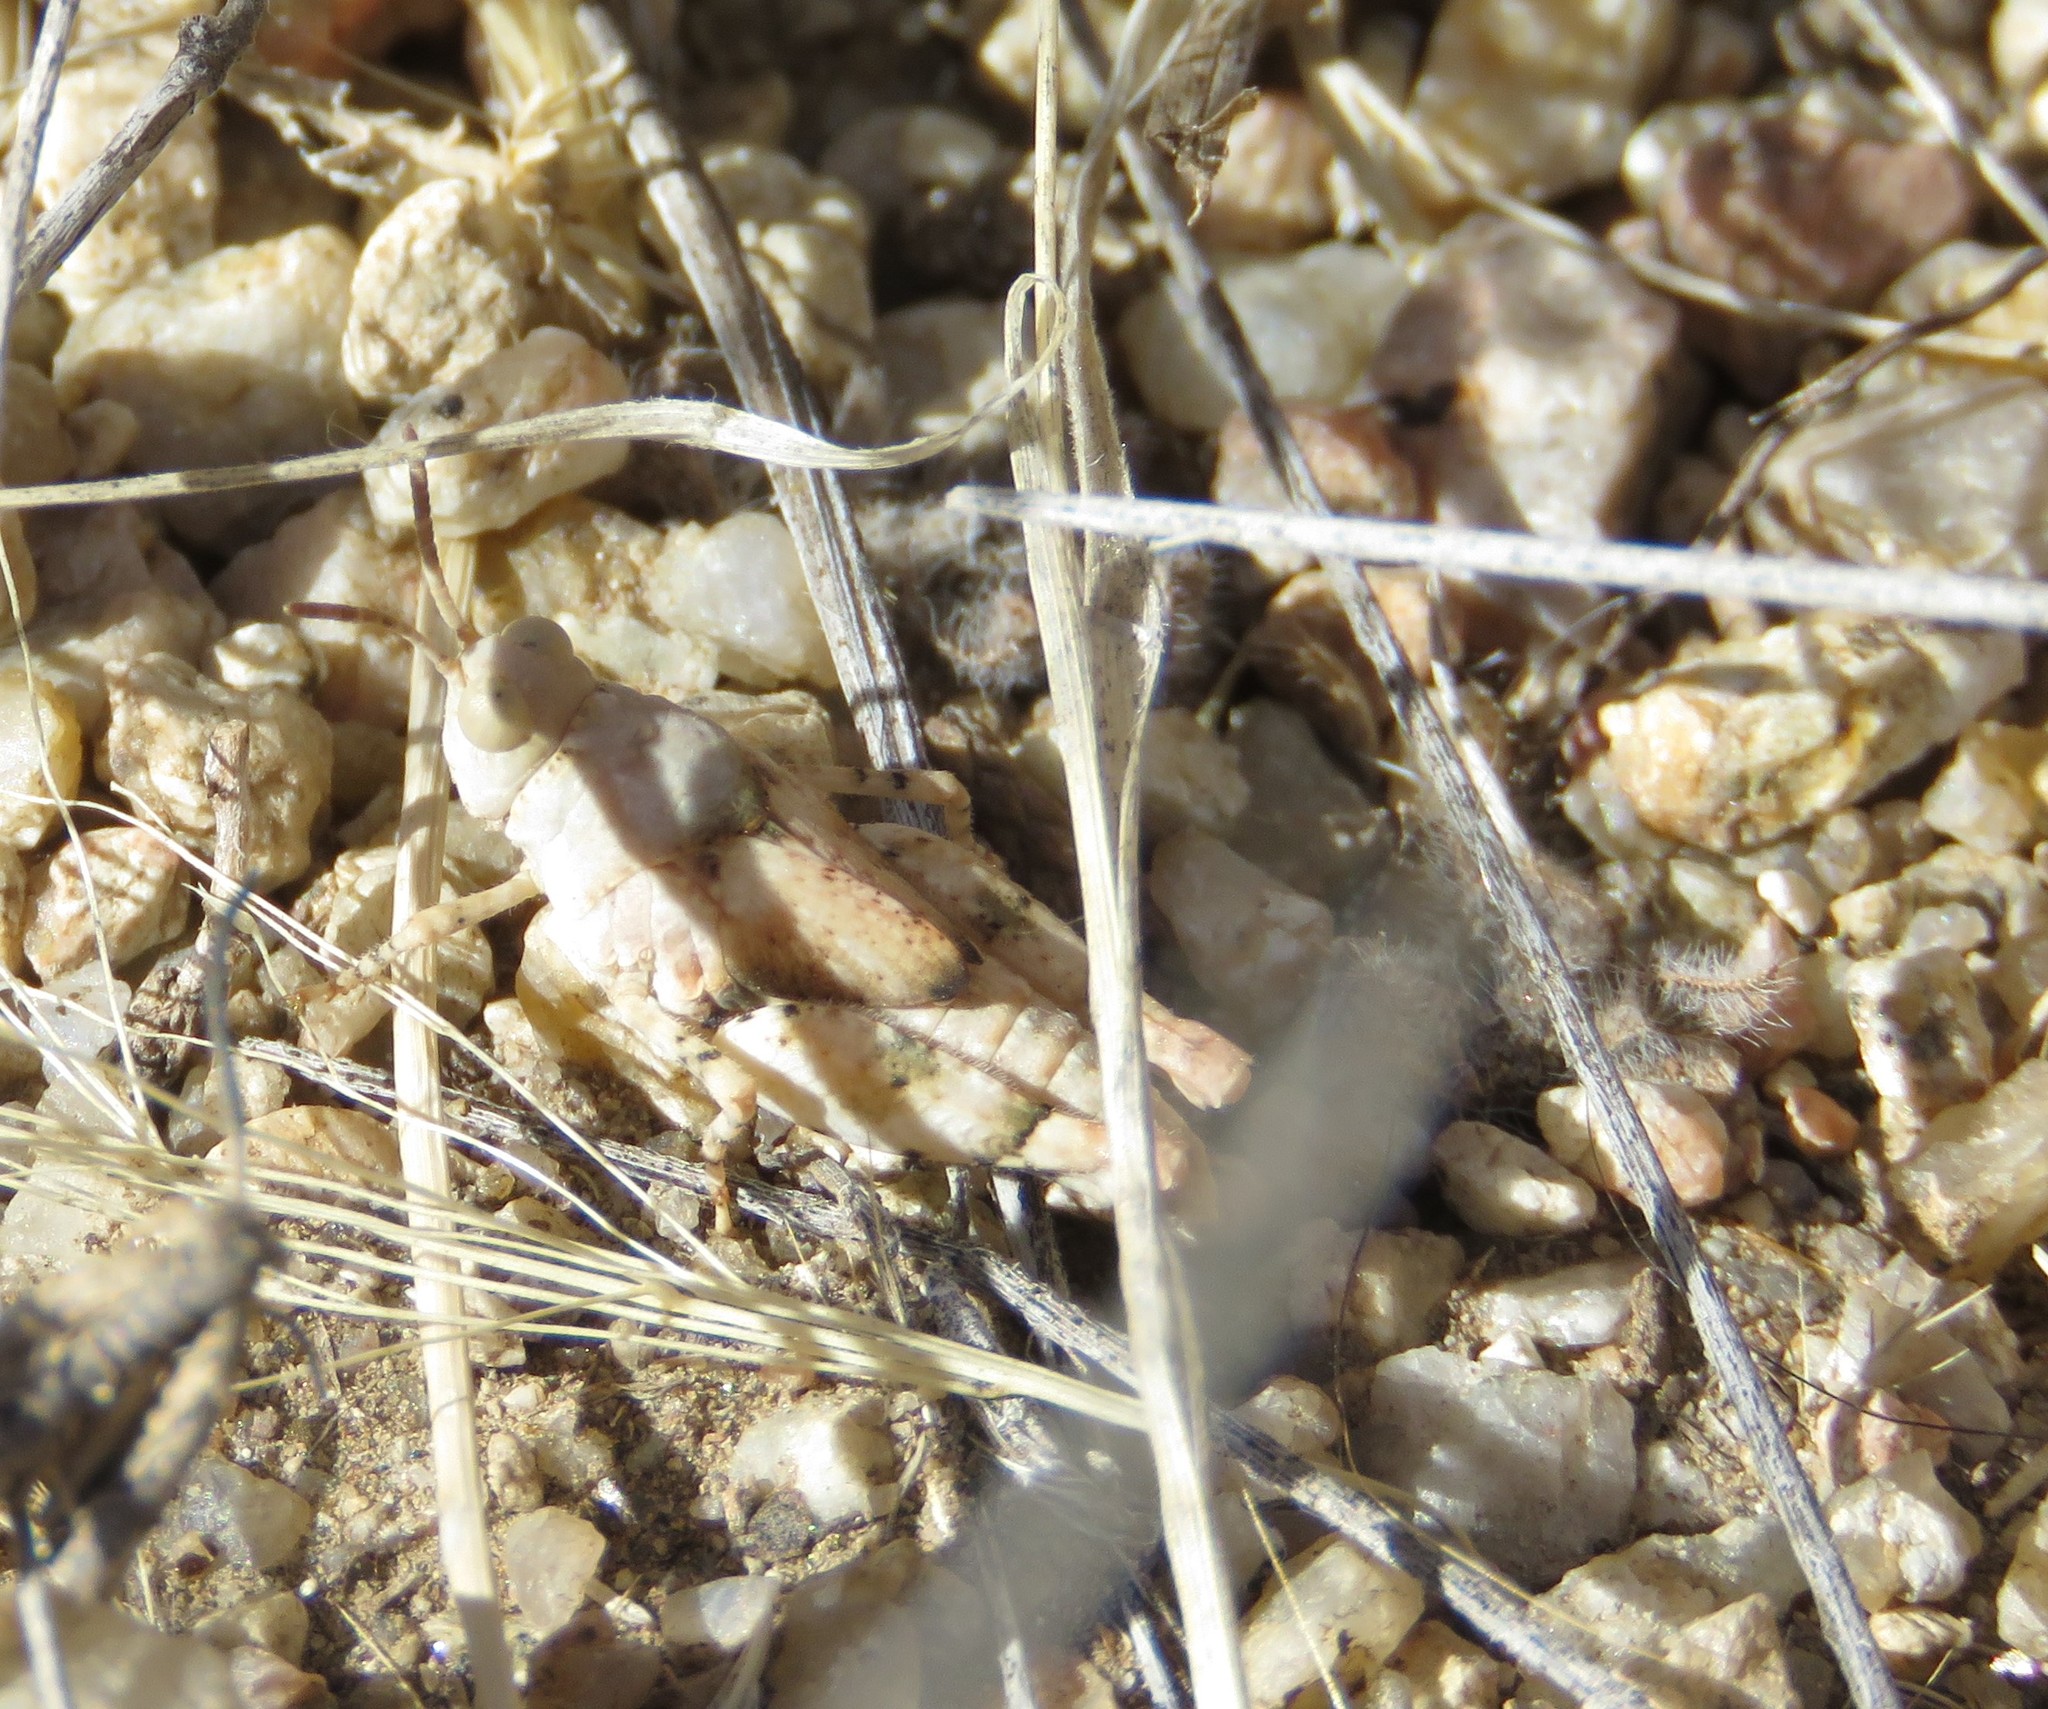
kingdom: Animalia
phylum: Arthropoda
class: Insecta
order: Orthoptera
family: Acrididae
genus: Cibolacris
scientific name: Cibolacris parviceps
